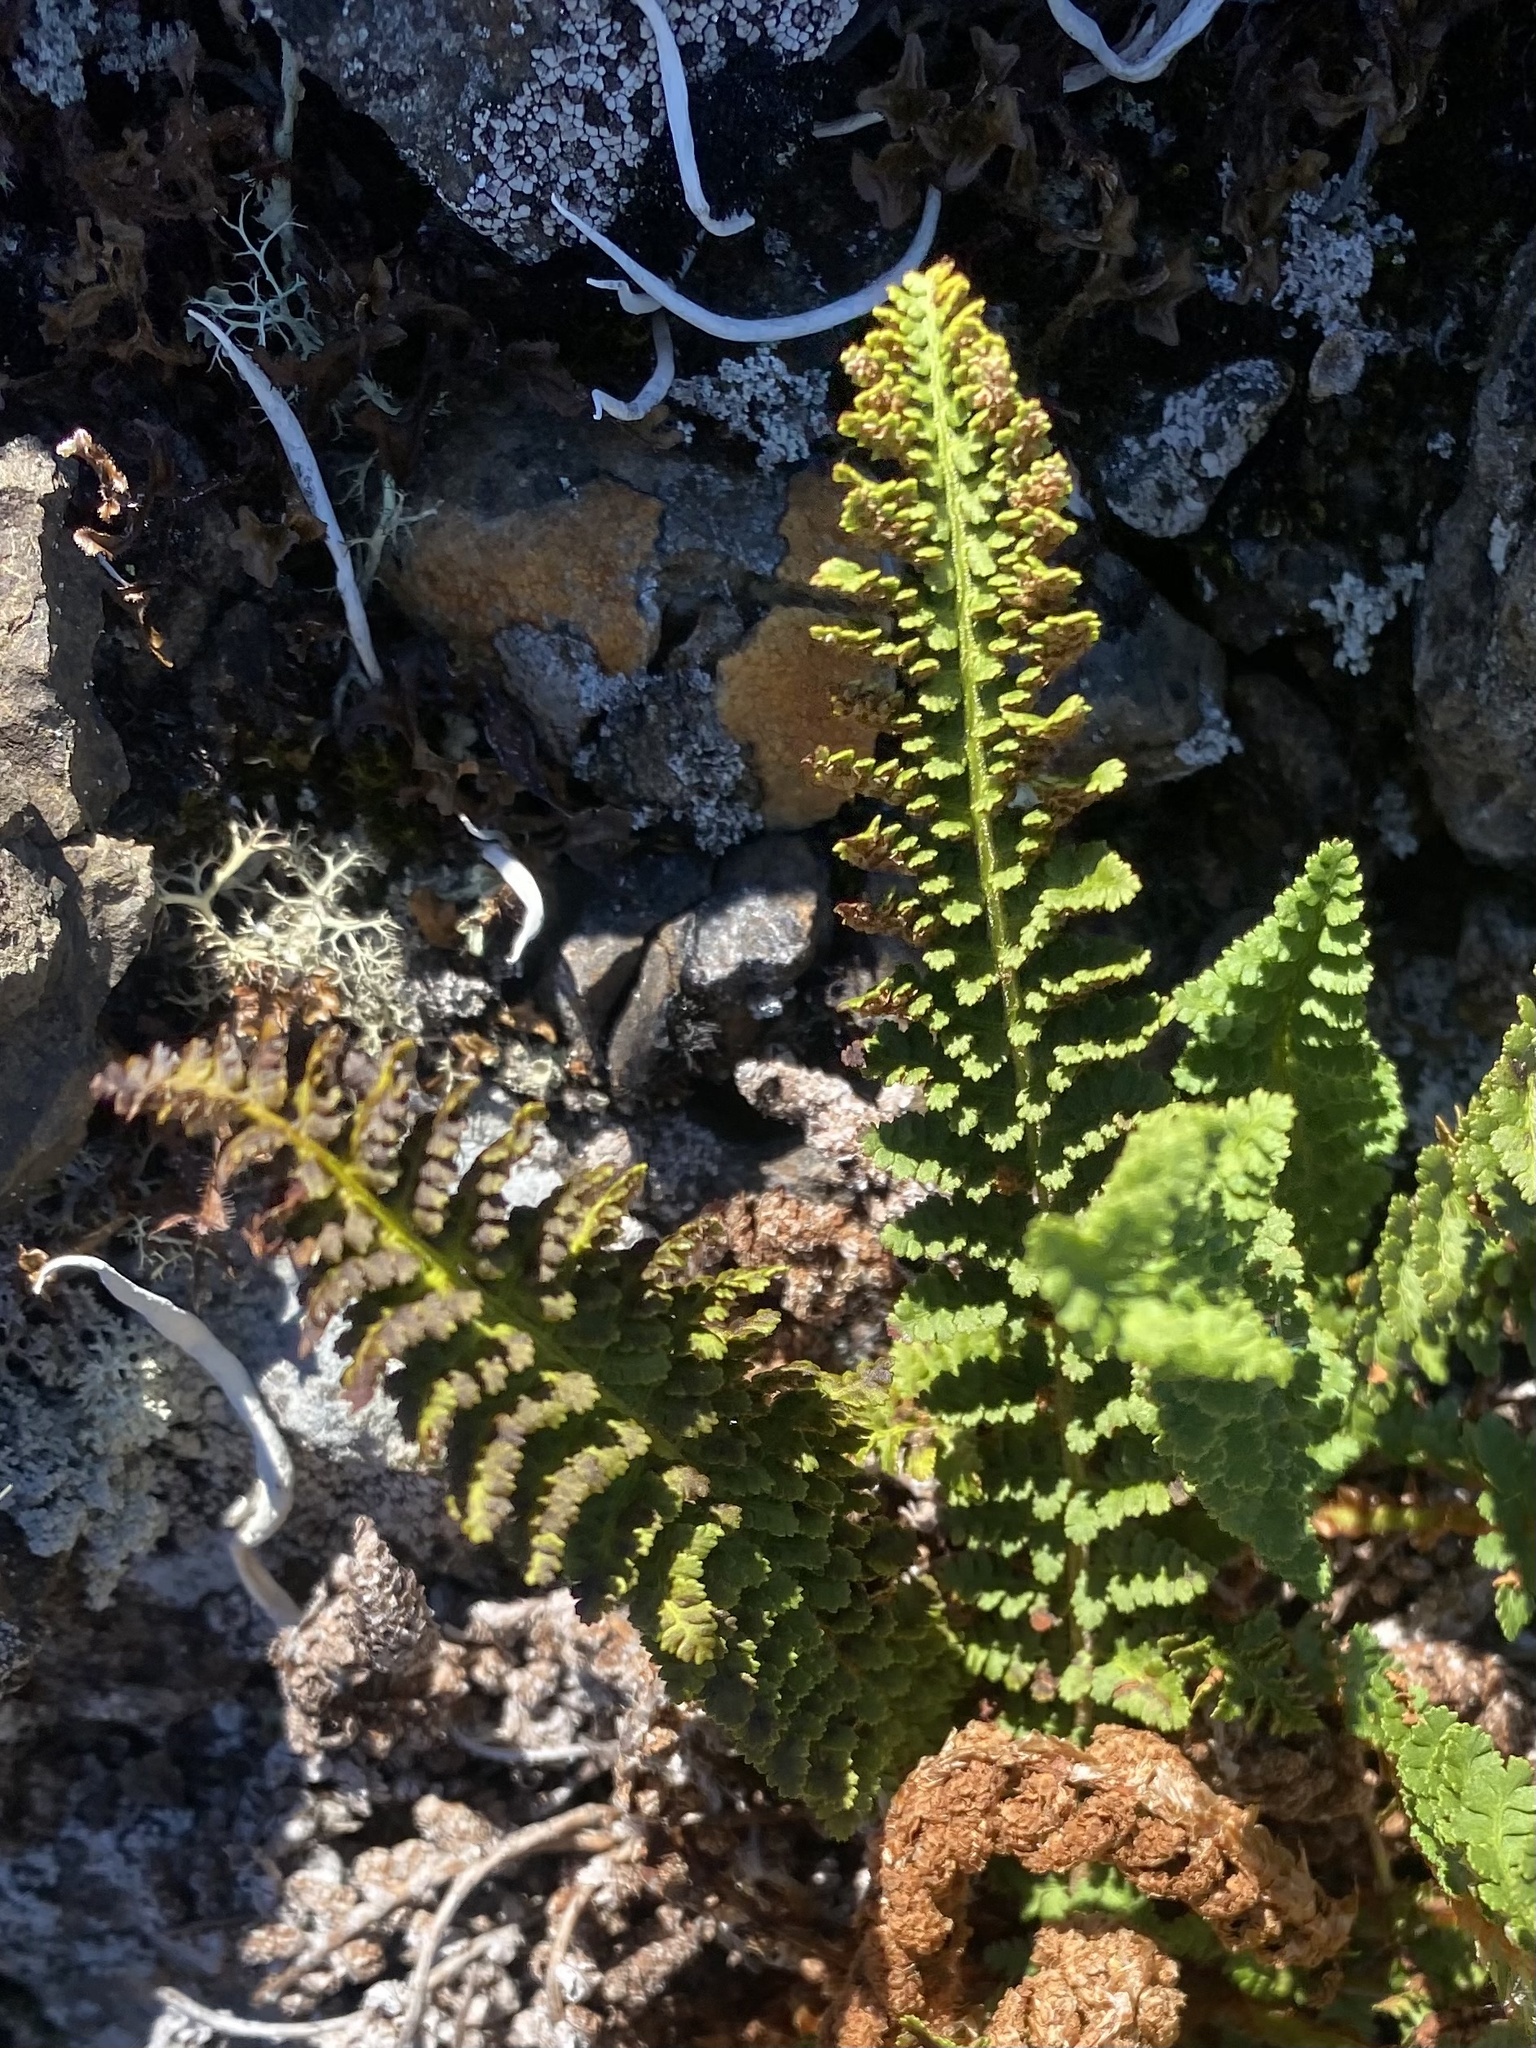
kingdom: Plantae
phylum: Tracheophyta
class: Polypodiopsida
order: Polypodiales
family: Dryopteridaceae
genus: Dryopteris
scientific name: Dryopteris fragrans
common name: Fragrant wood fern
